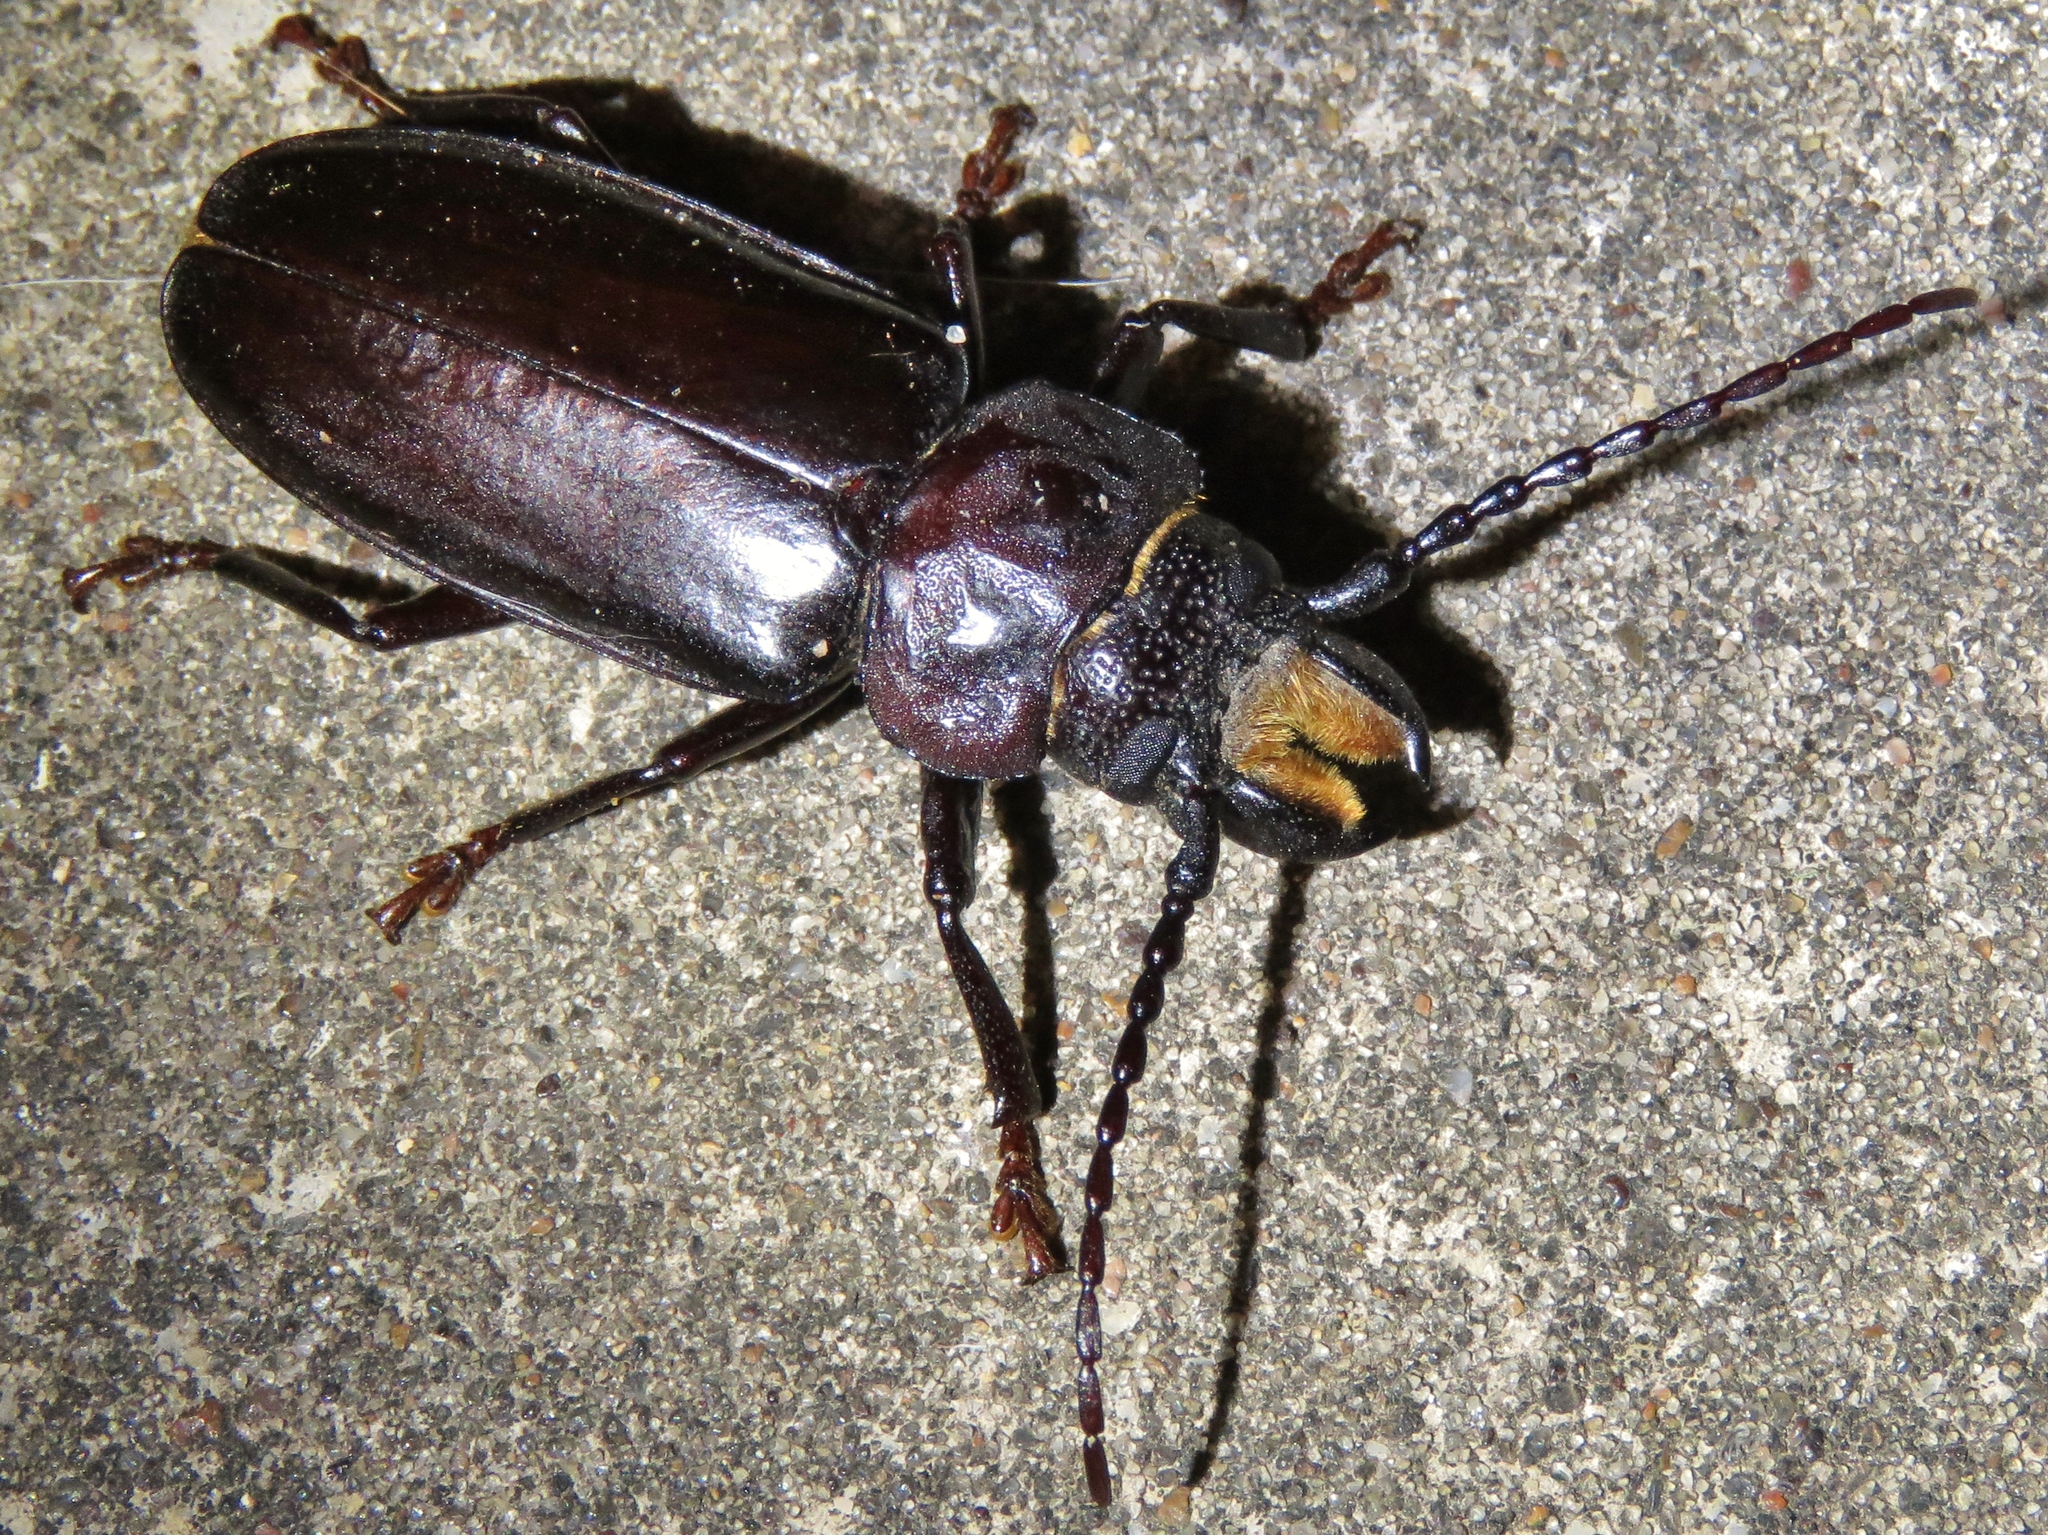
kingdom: Animalia
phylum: Arthropoda
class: Insecta
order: Coleoptera
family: Cerambycidae
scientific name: Cerambycidae
